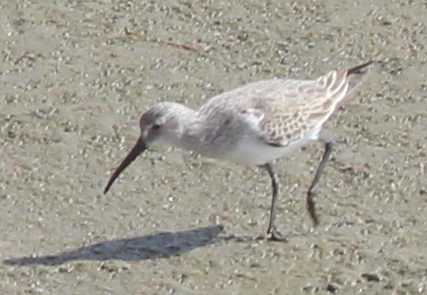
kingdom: Animalia
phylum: Chordata
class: Aves
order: Charadriiformes
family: Scolopacidae
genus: Calidris
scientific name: Calidris ferruginea
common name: Curlew sandpiper
